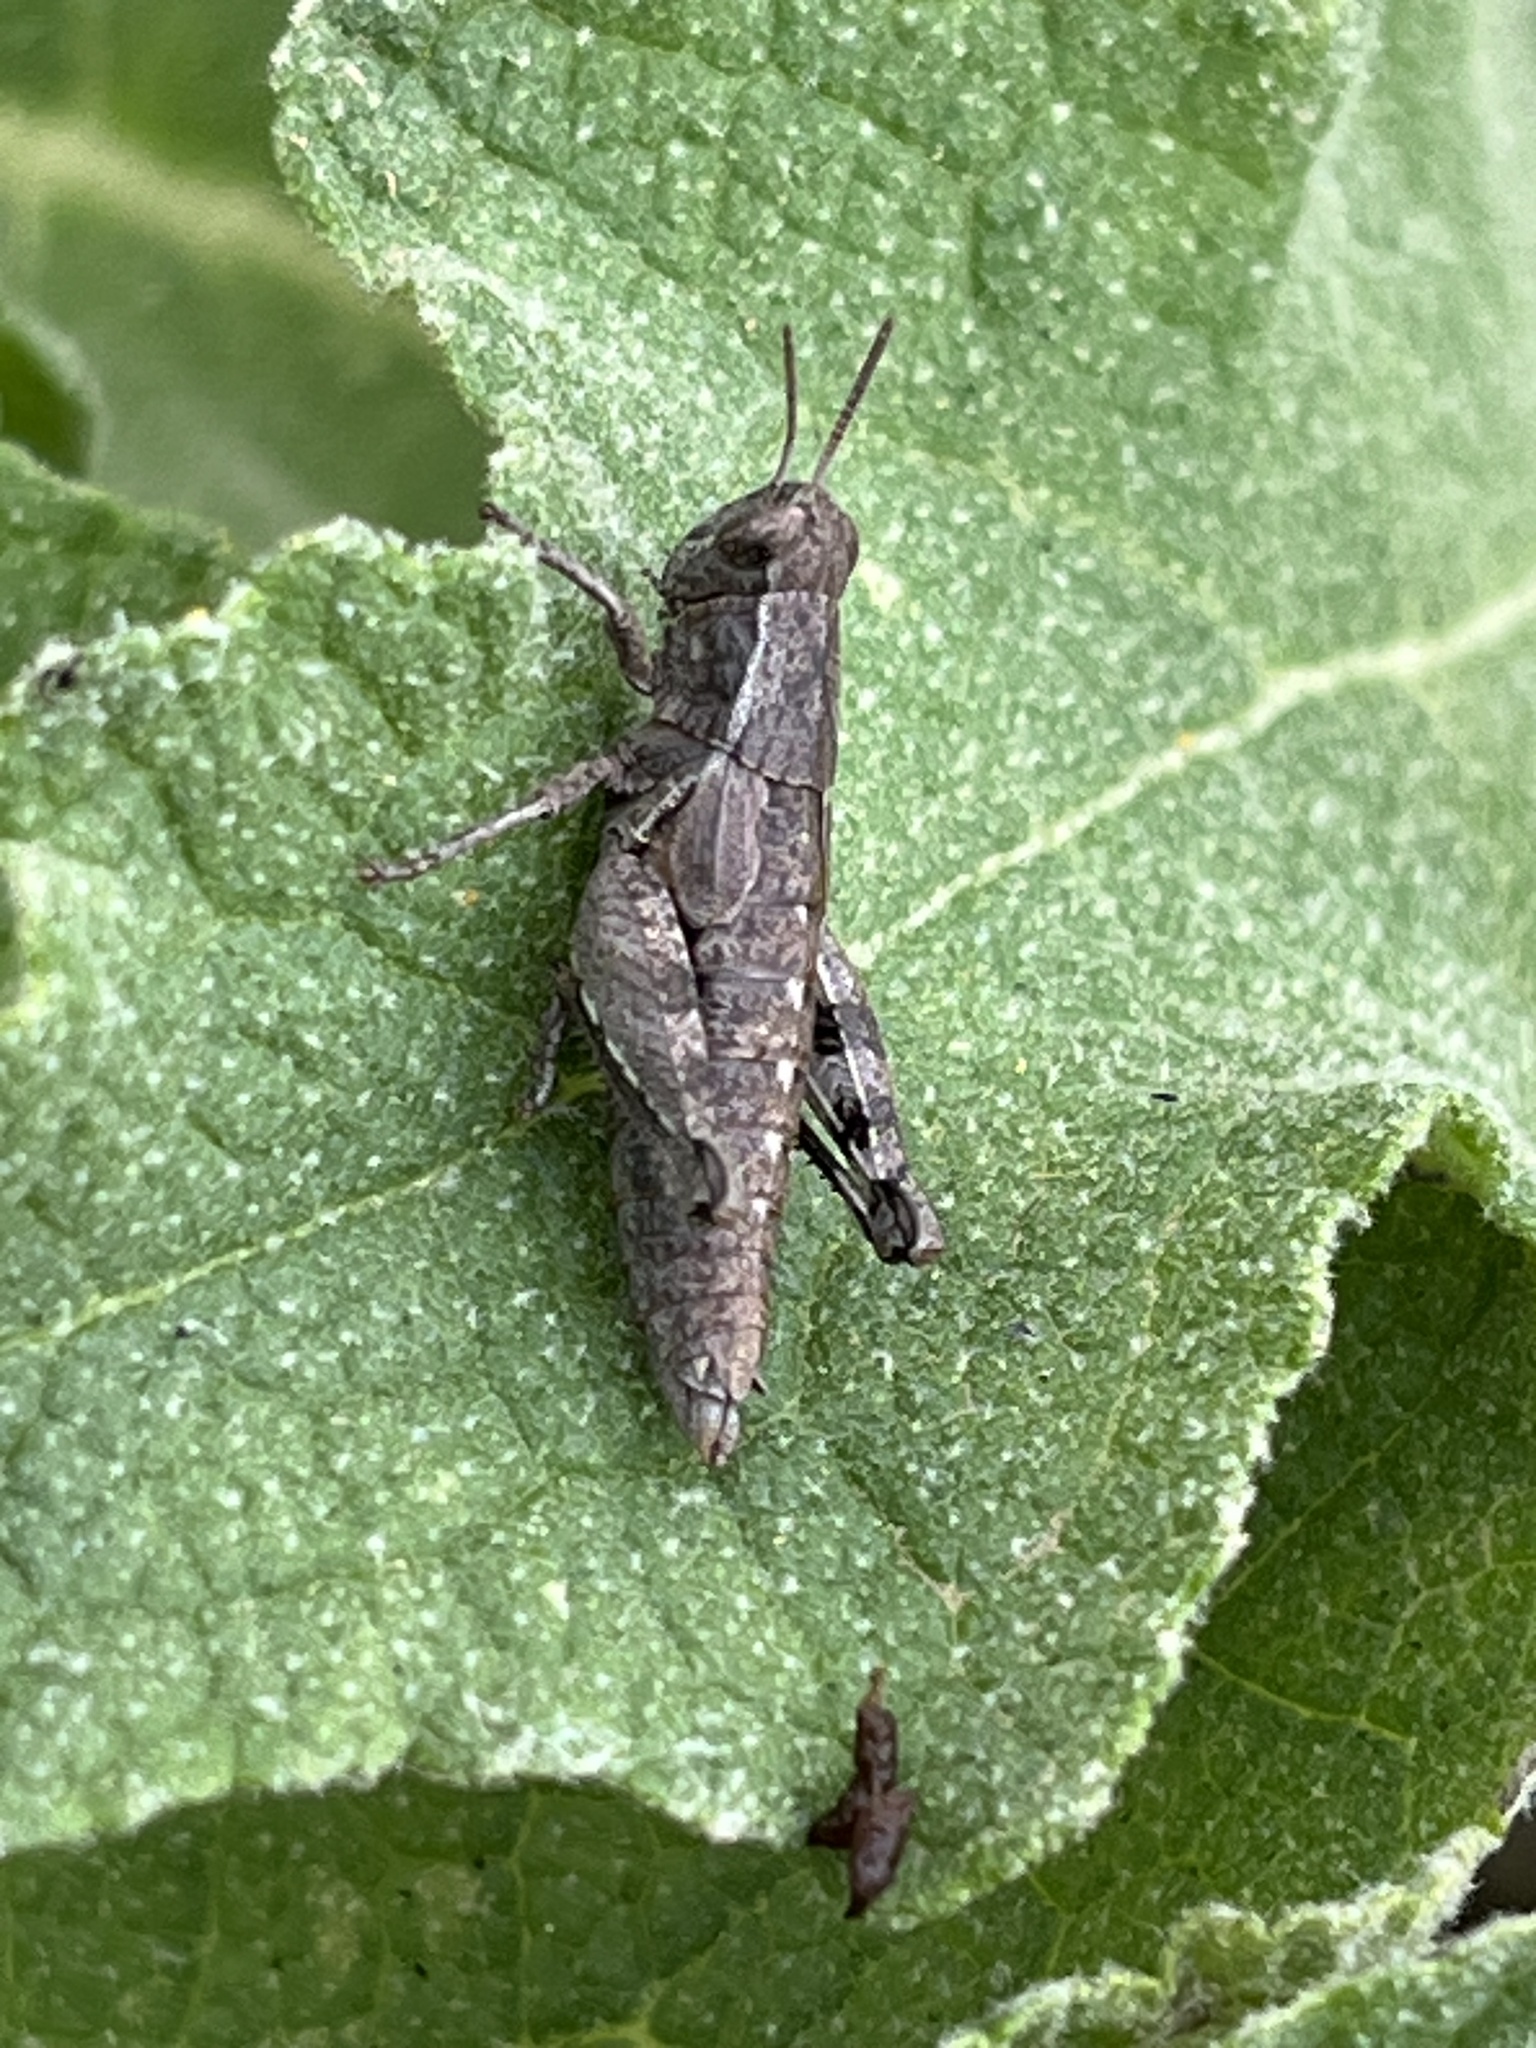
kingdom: Animalia
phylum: Arthropoda
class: Insecta
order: Orthoptera
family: Acrididae
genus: Pezotettix
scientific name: Pezotettix giornae
